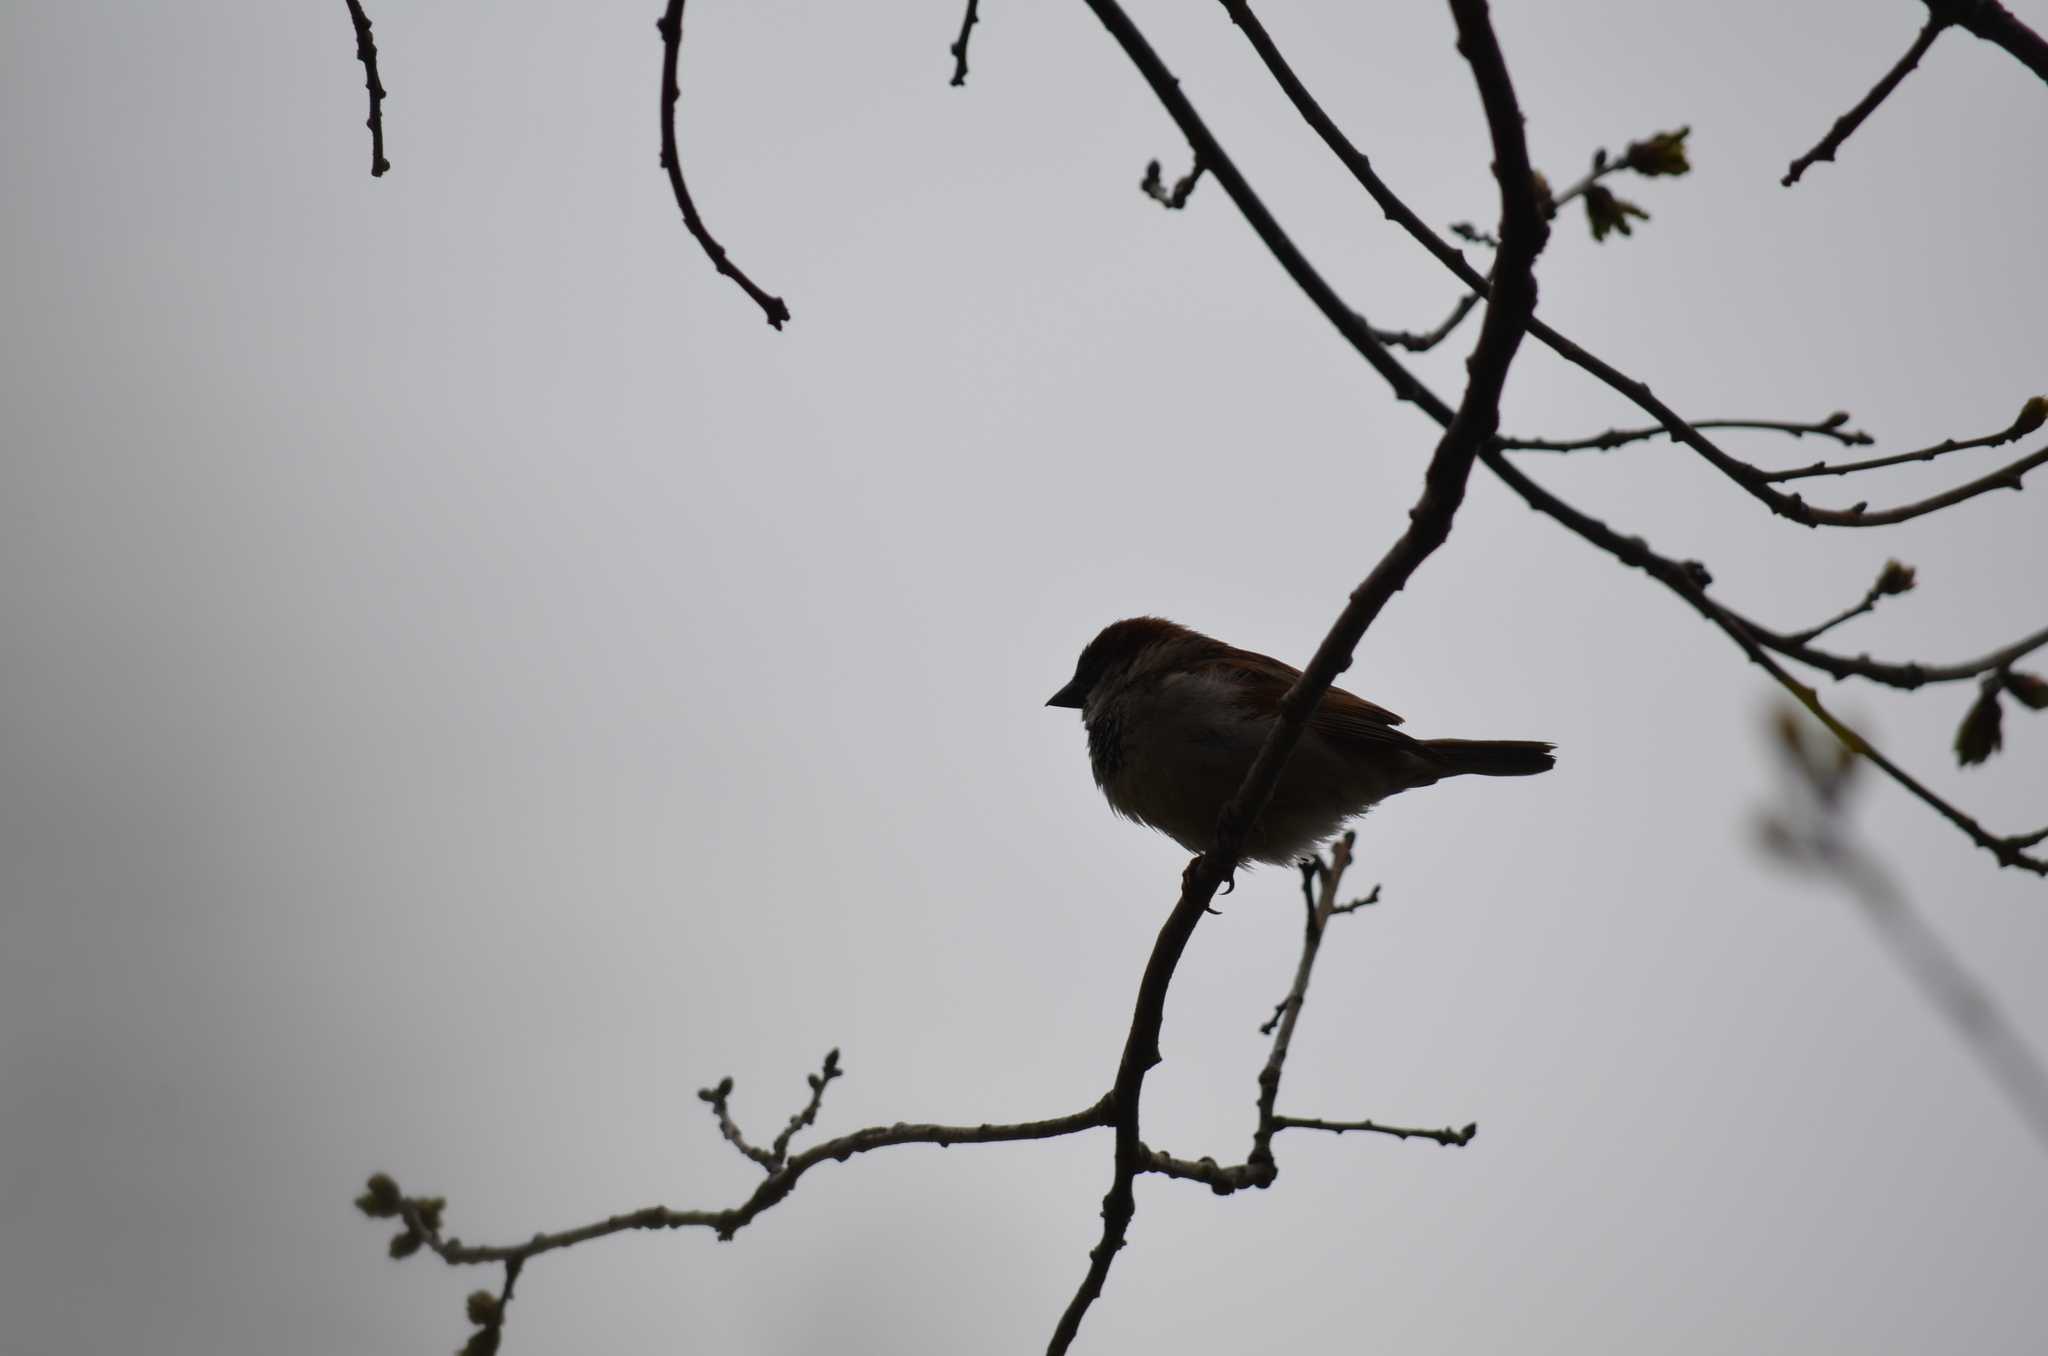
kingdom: Animalia
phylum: Chordata
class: Aves
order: Passeriformes
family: Passeridae
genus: Passer
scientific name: Passer domesticus
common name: House sparrow
